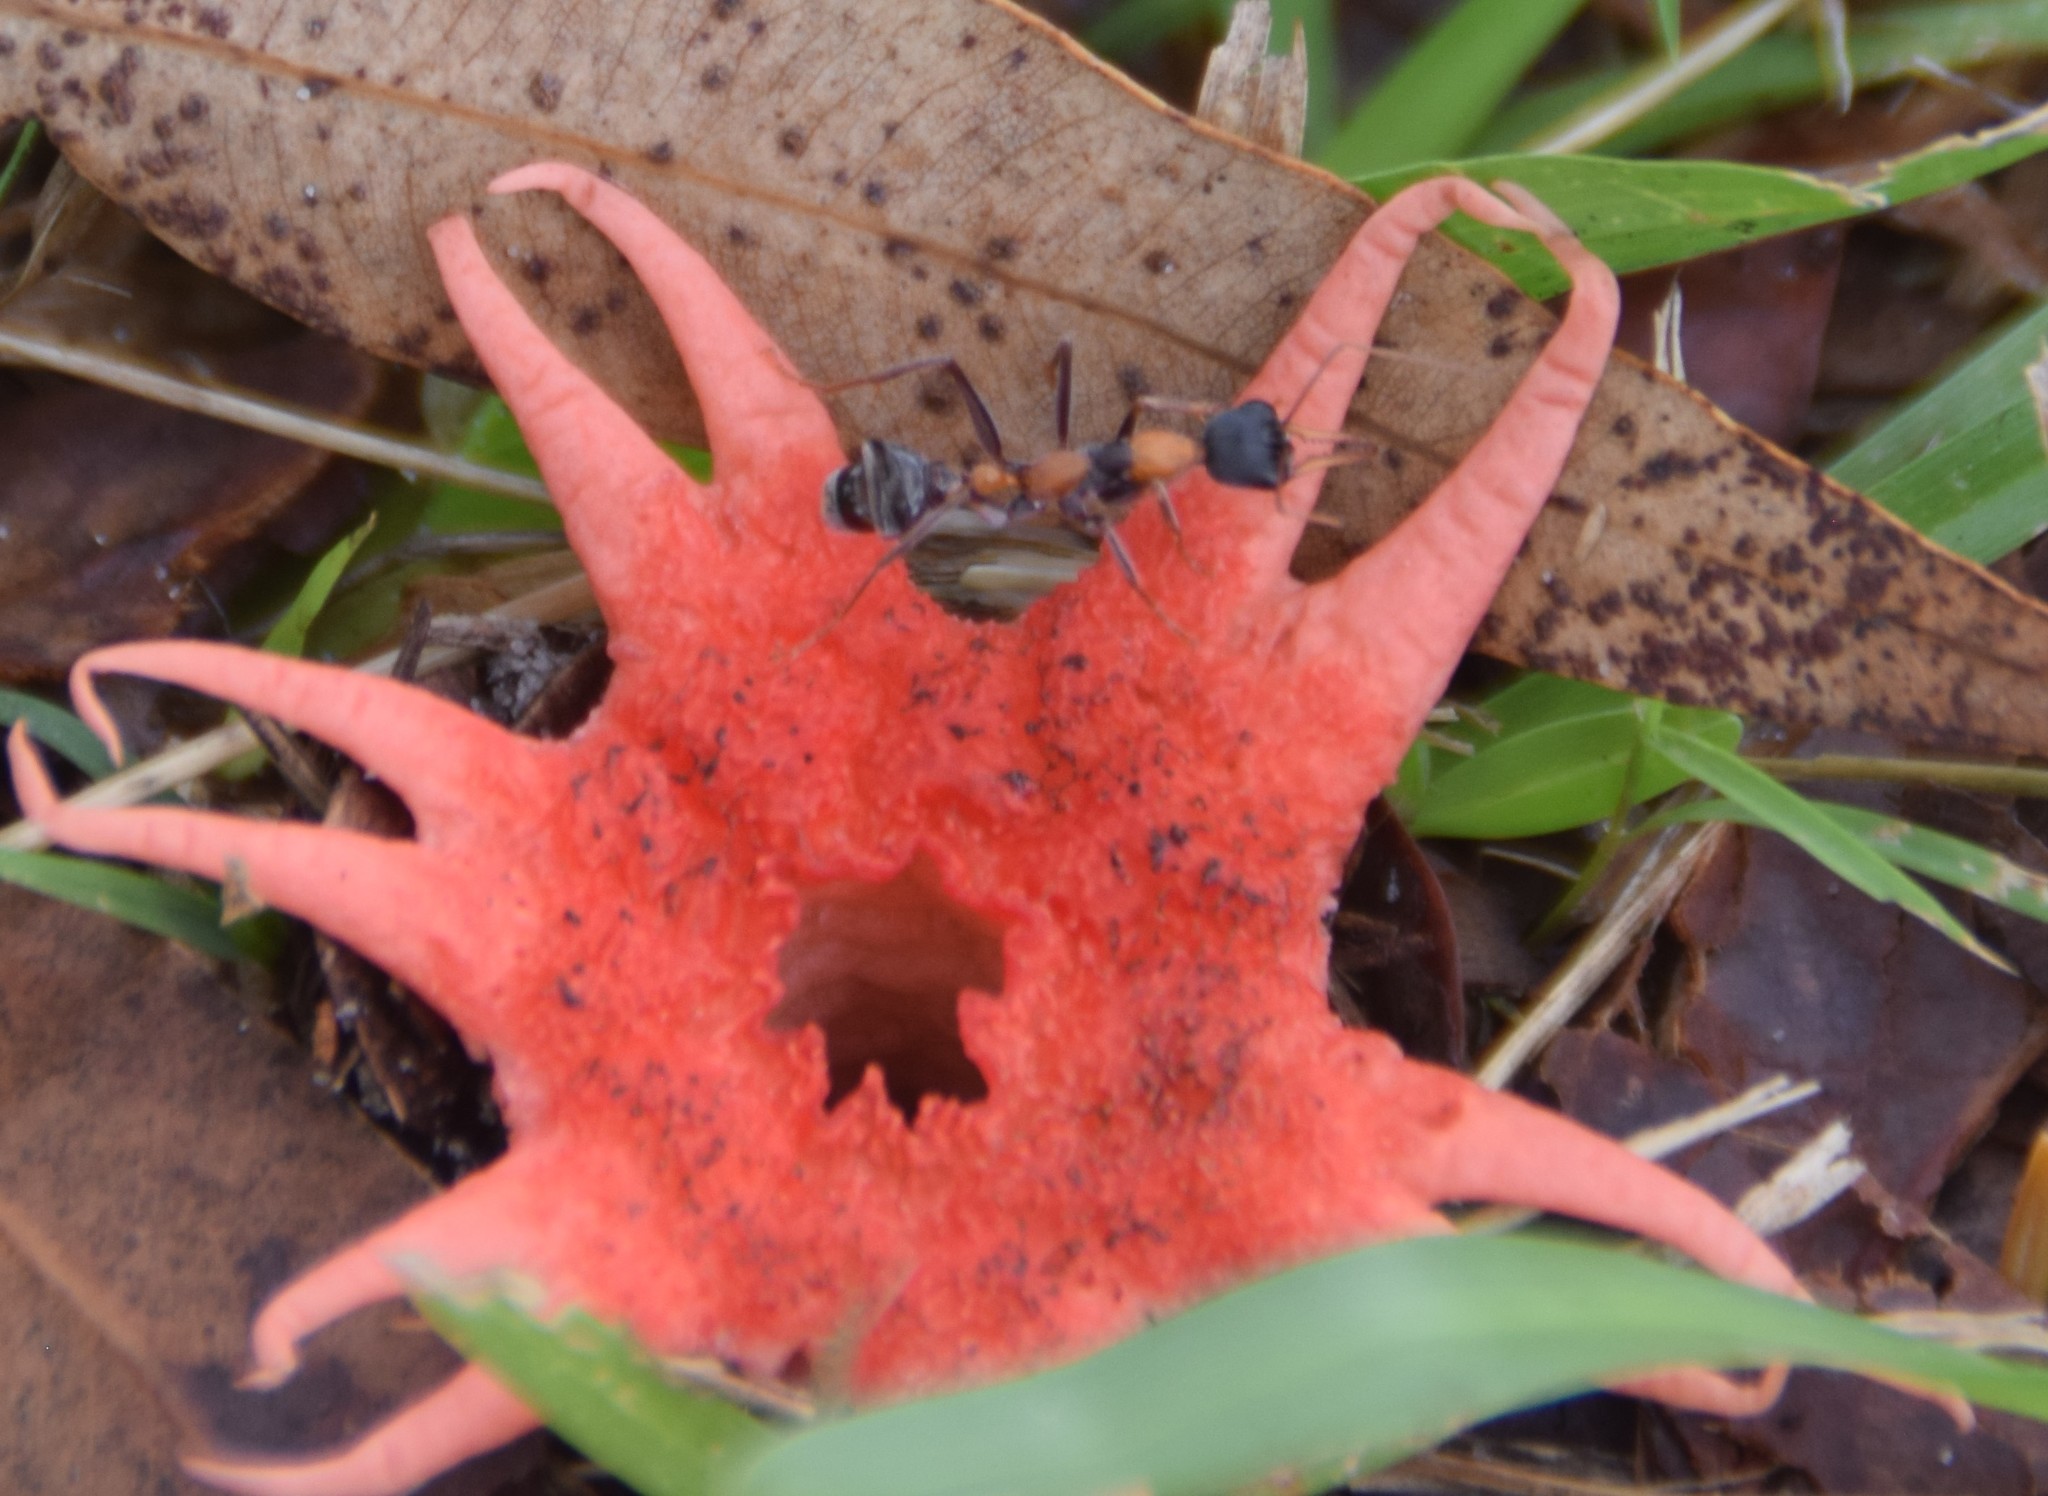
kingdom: Animalia
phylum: Arthropoda
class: Insecta
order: Hymenoptera
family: Formicidae
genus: Myrmecia
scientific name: Myrmecia nigrocincta
